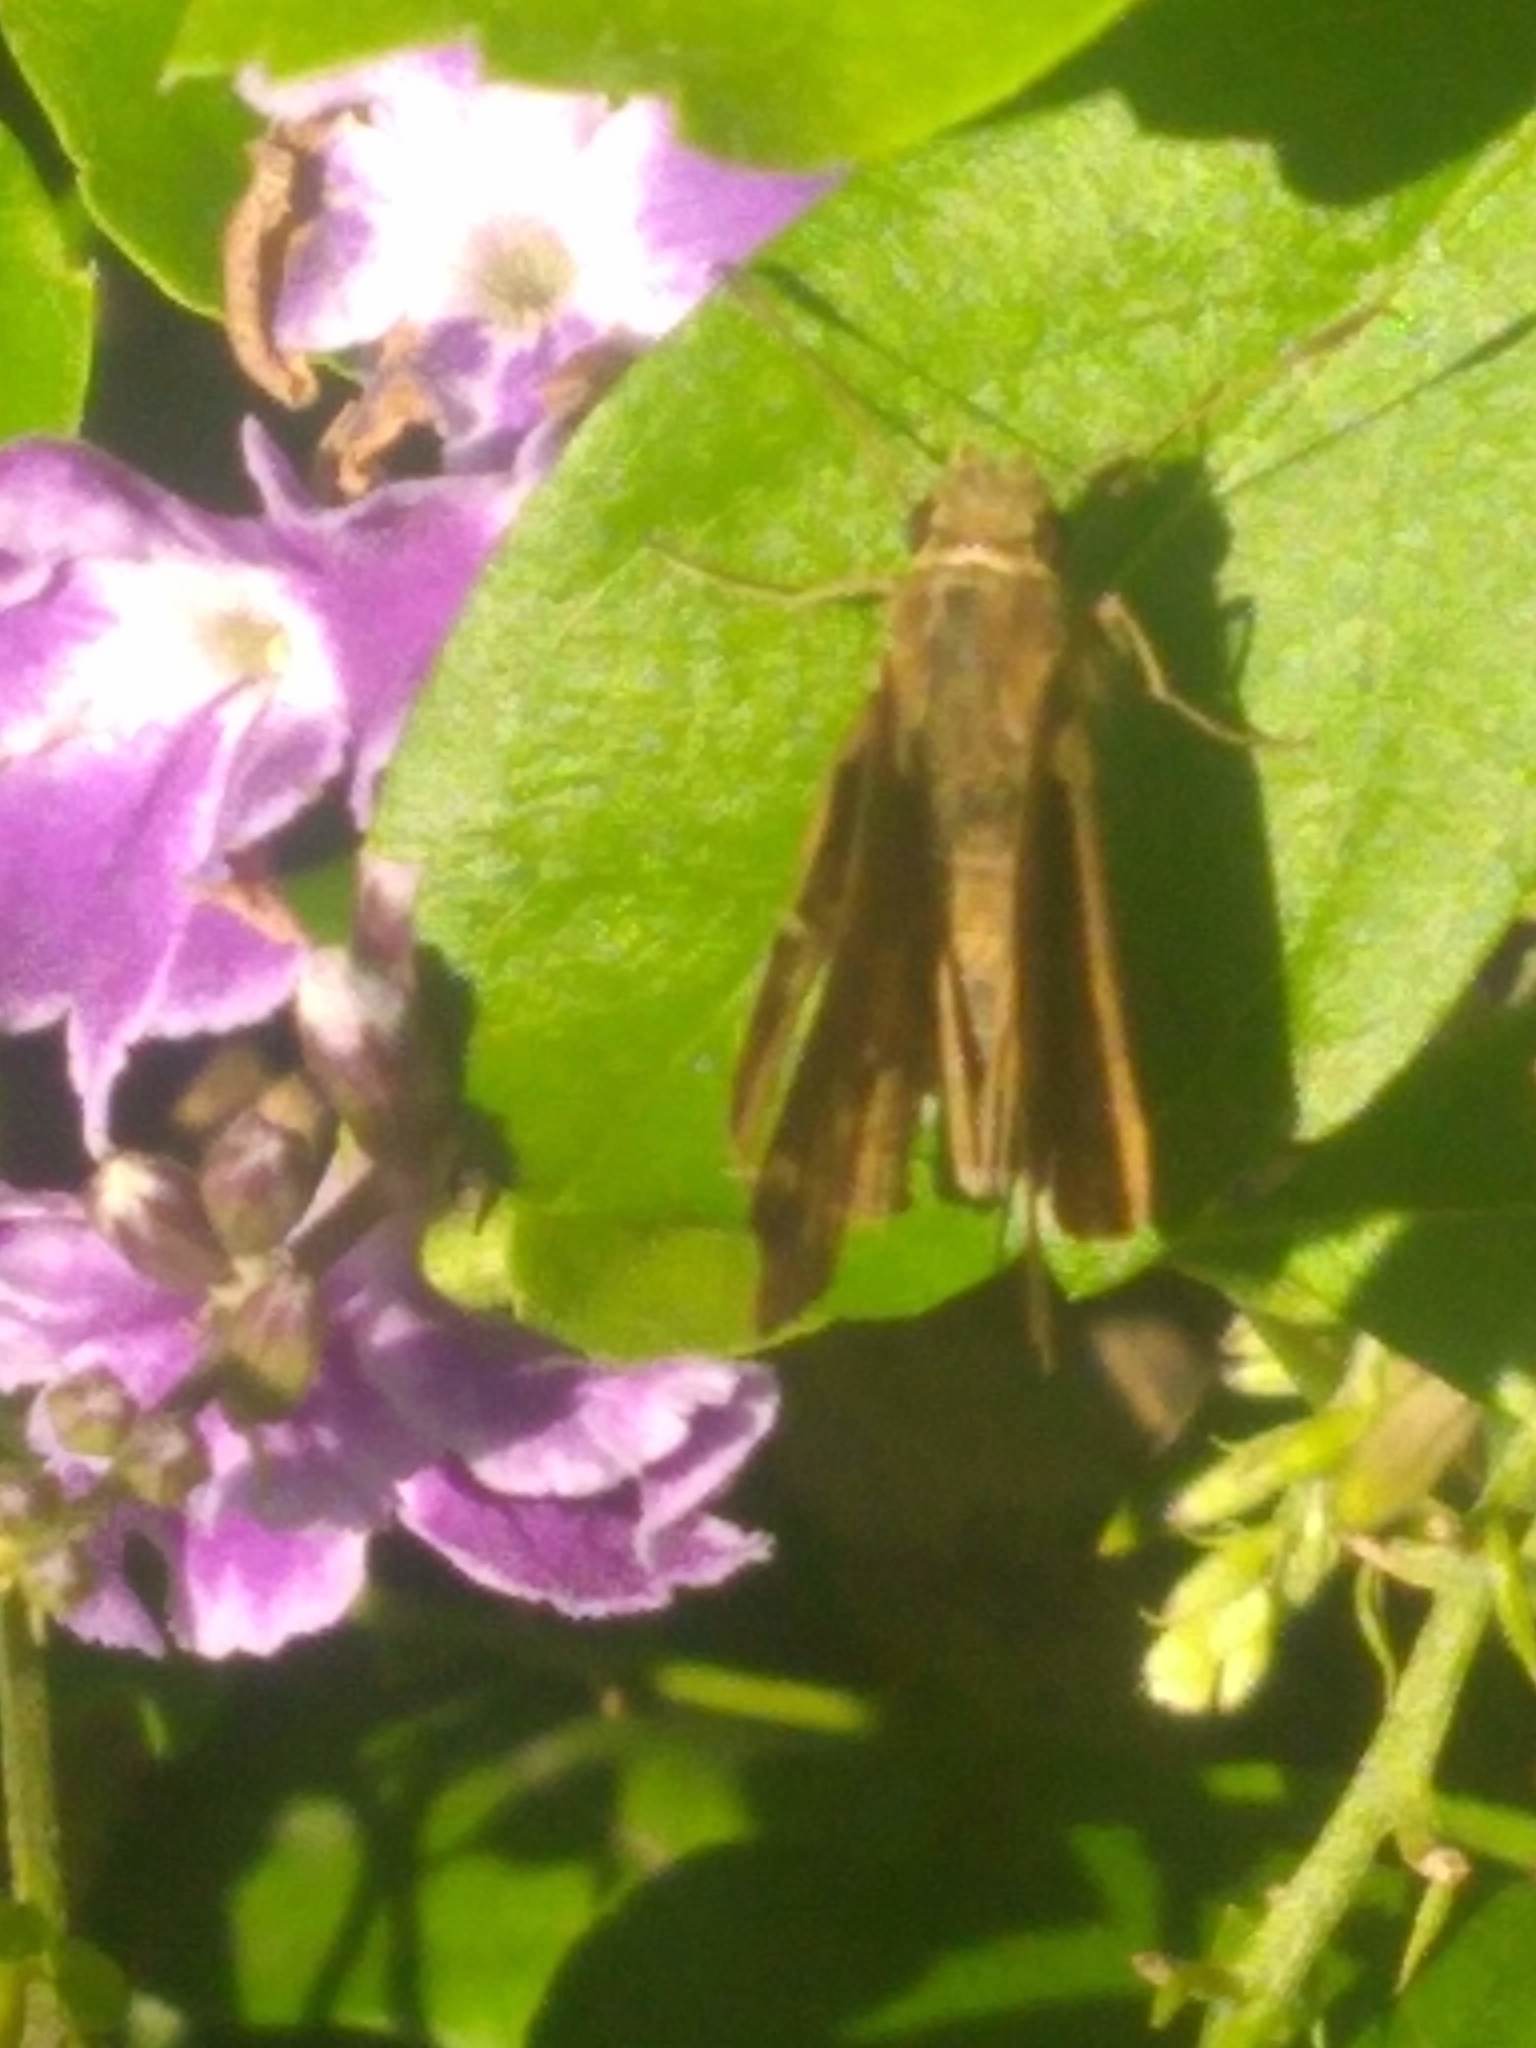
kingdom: Animalia
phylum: Arthropoda
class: Insecta
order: Lepidoptera
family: Hesperiidae
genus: Cymaenes
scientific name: Cymaenes
